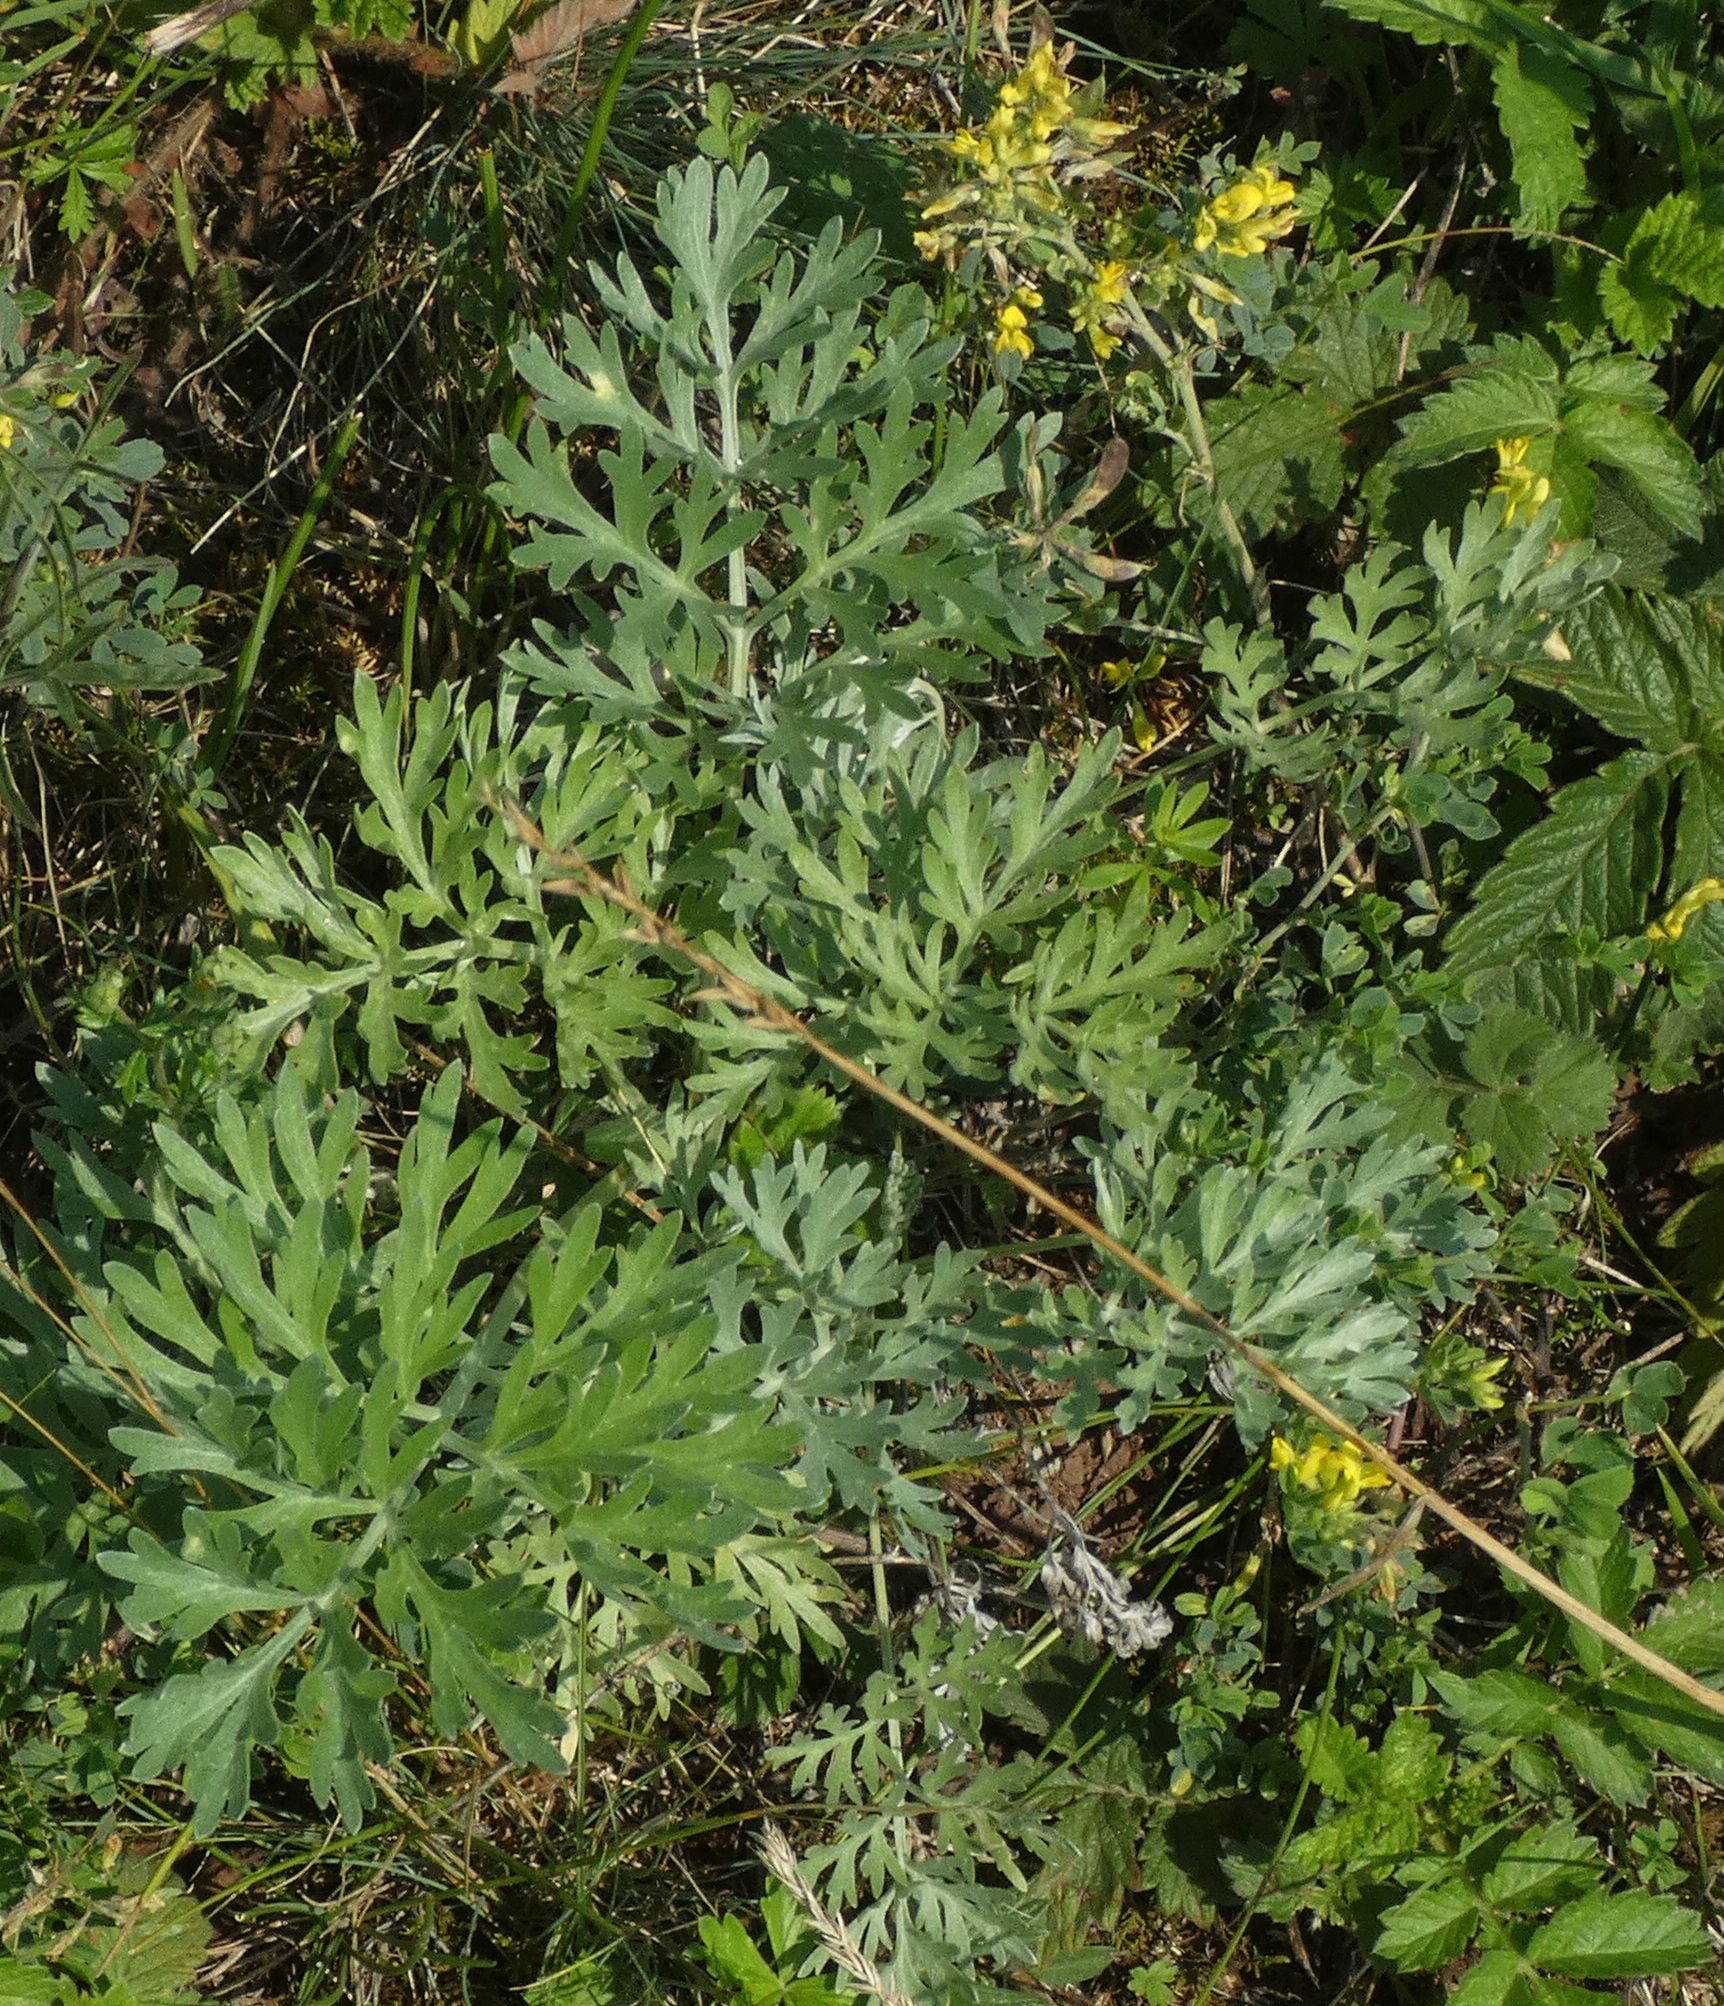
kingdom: Plantae
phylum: Tracheophyta
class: Magnoliopsida
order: Asterales
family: Asteraceae
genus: Artemisia
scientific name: Artemisia absinthium
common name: Wormwood
